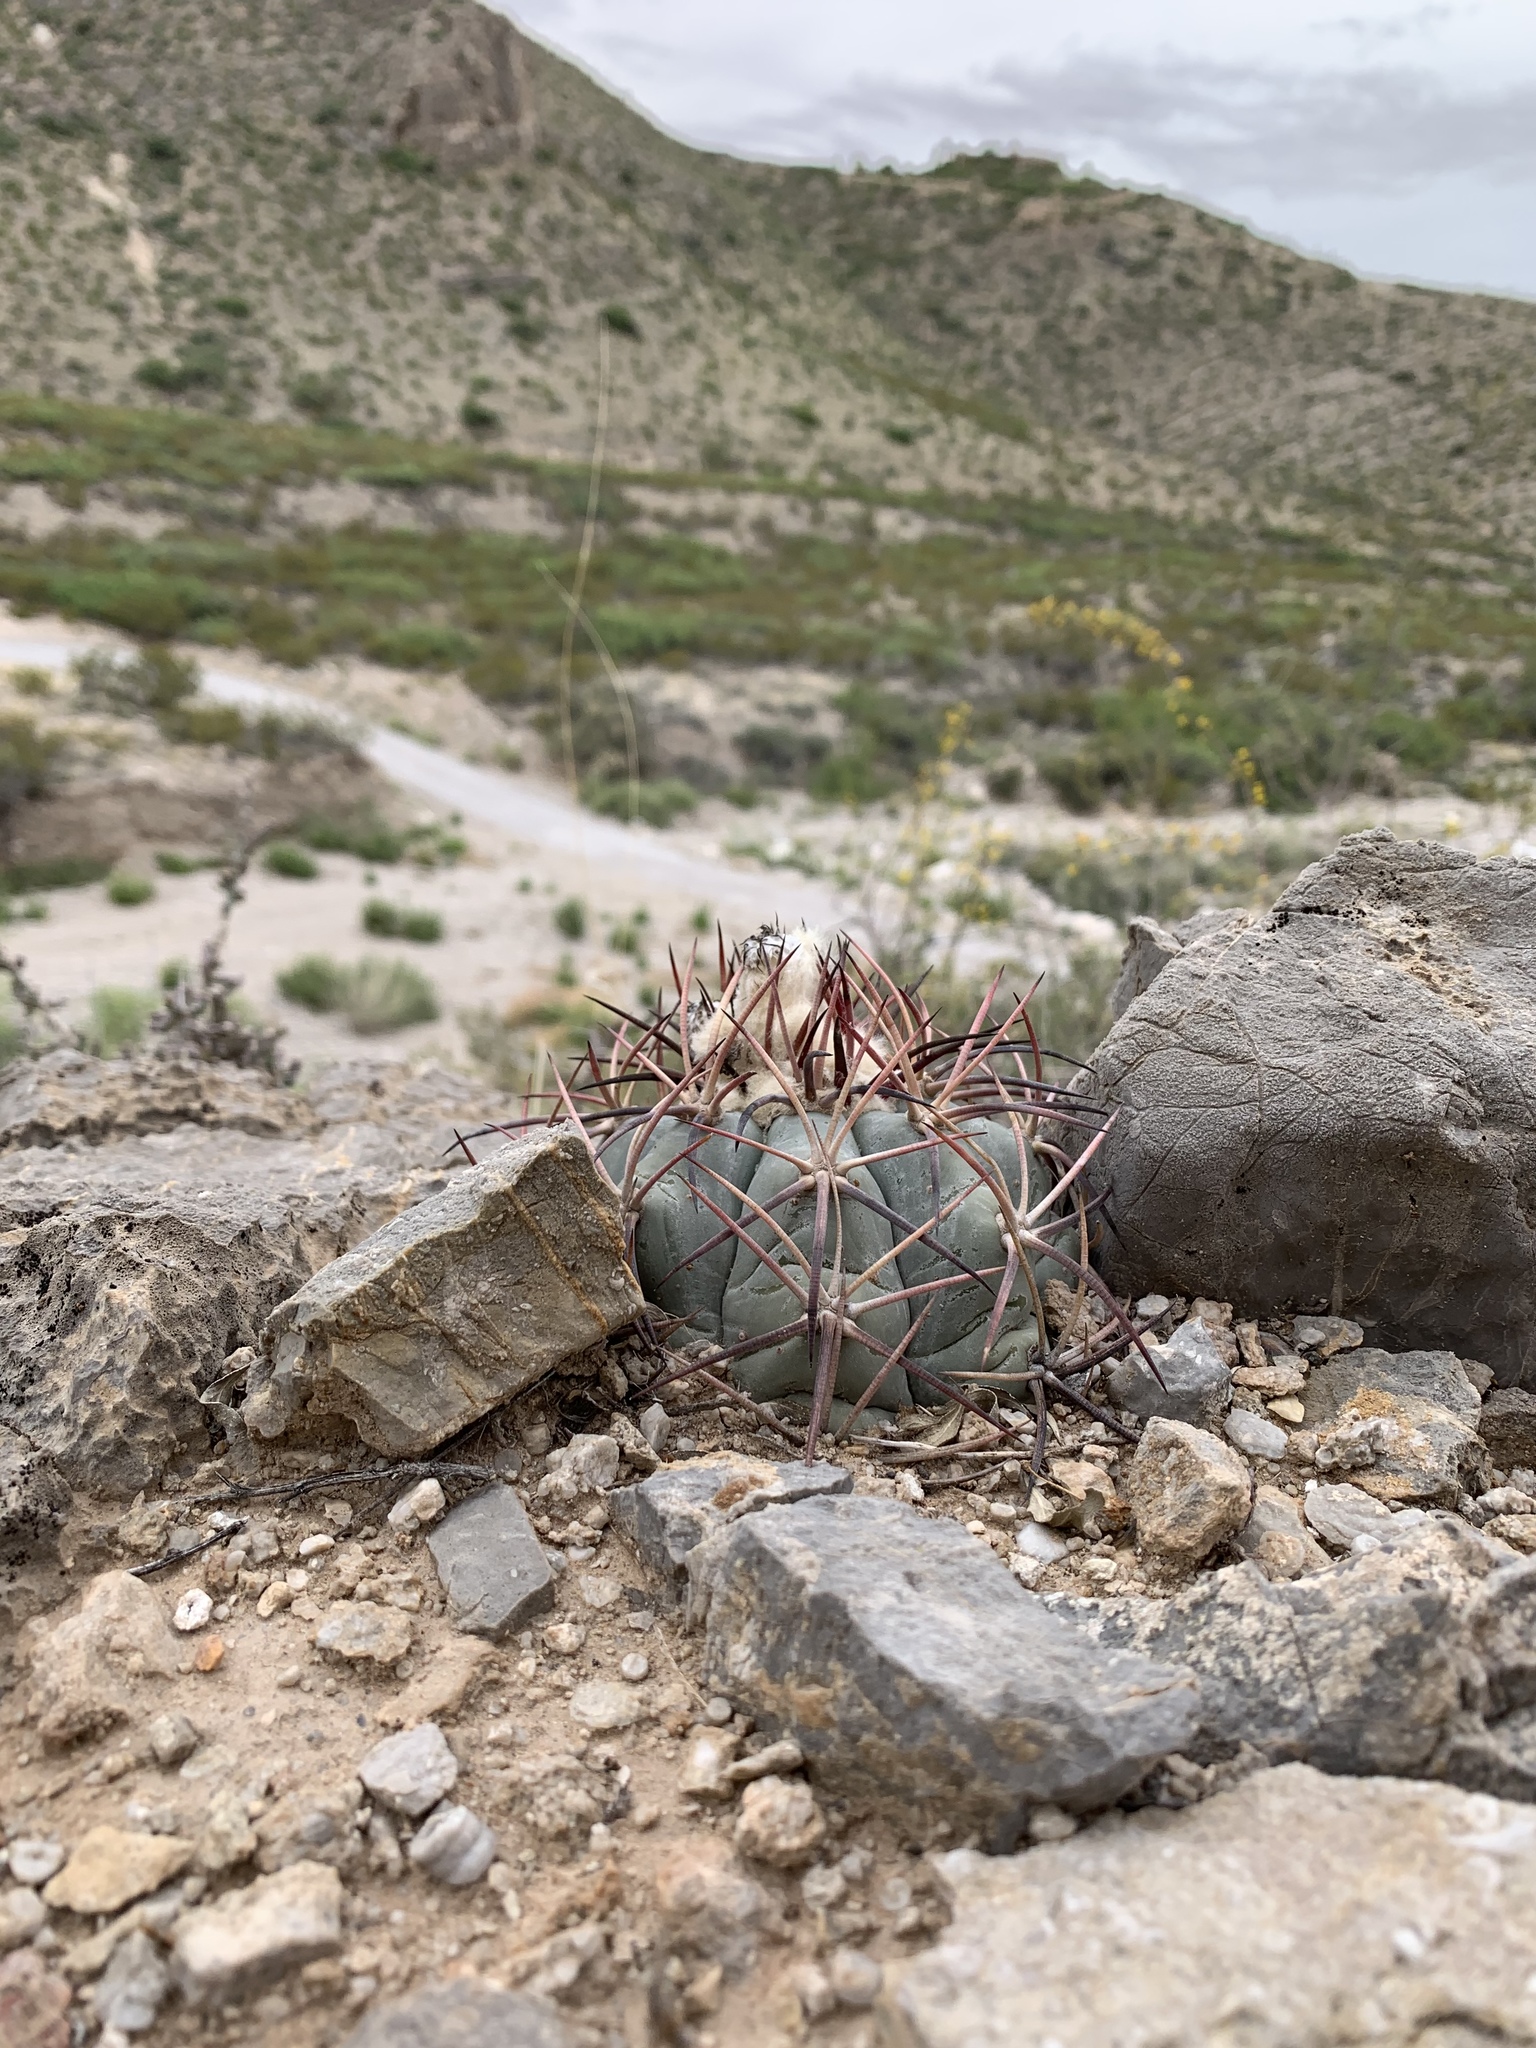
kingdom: Plantae
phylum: Tracheophyta
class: Magnoliopsida
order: Caryophyllales
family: Cactaceae
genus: Echinocactus
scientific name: Echinocactus horizonthalonius
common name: Devilshead
